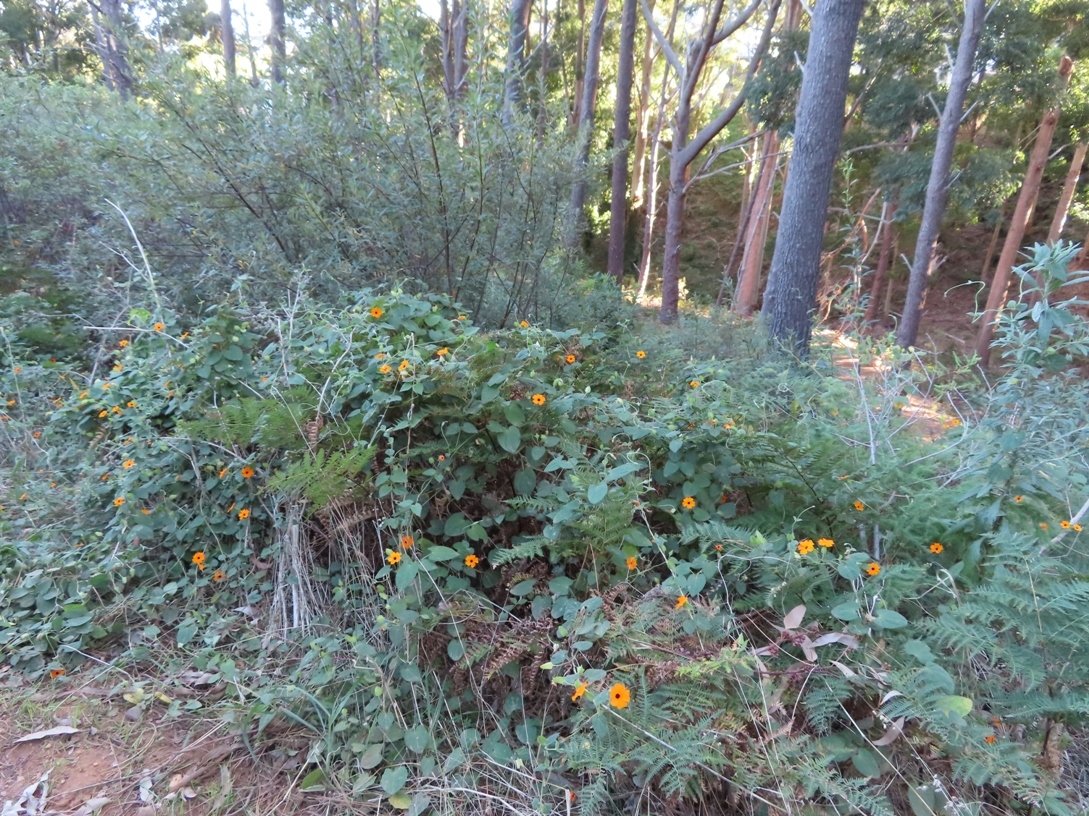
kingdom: Plantae
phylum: Tracheophyta
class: Magnoliopsida
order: Lamiales
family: Acanthaceae
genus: Thunbergia
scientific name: Thunbergia alata
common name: Blackeyed susan vine
